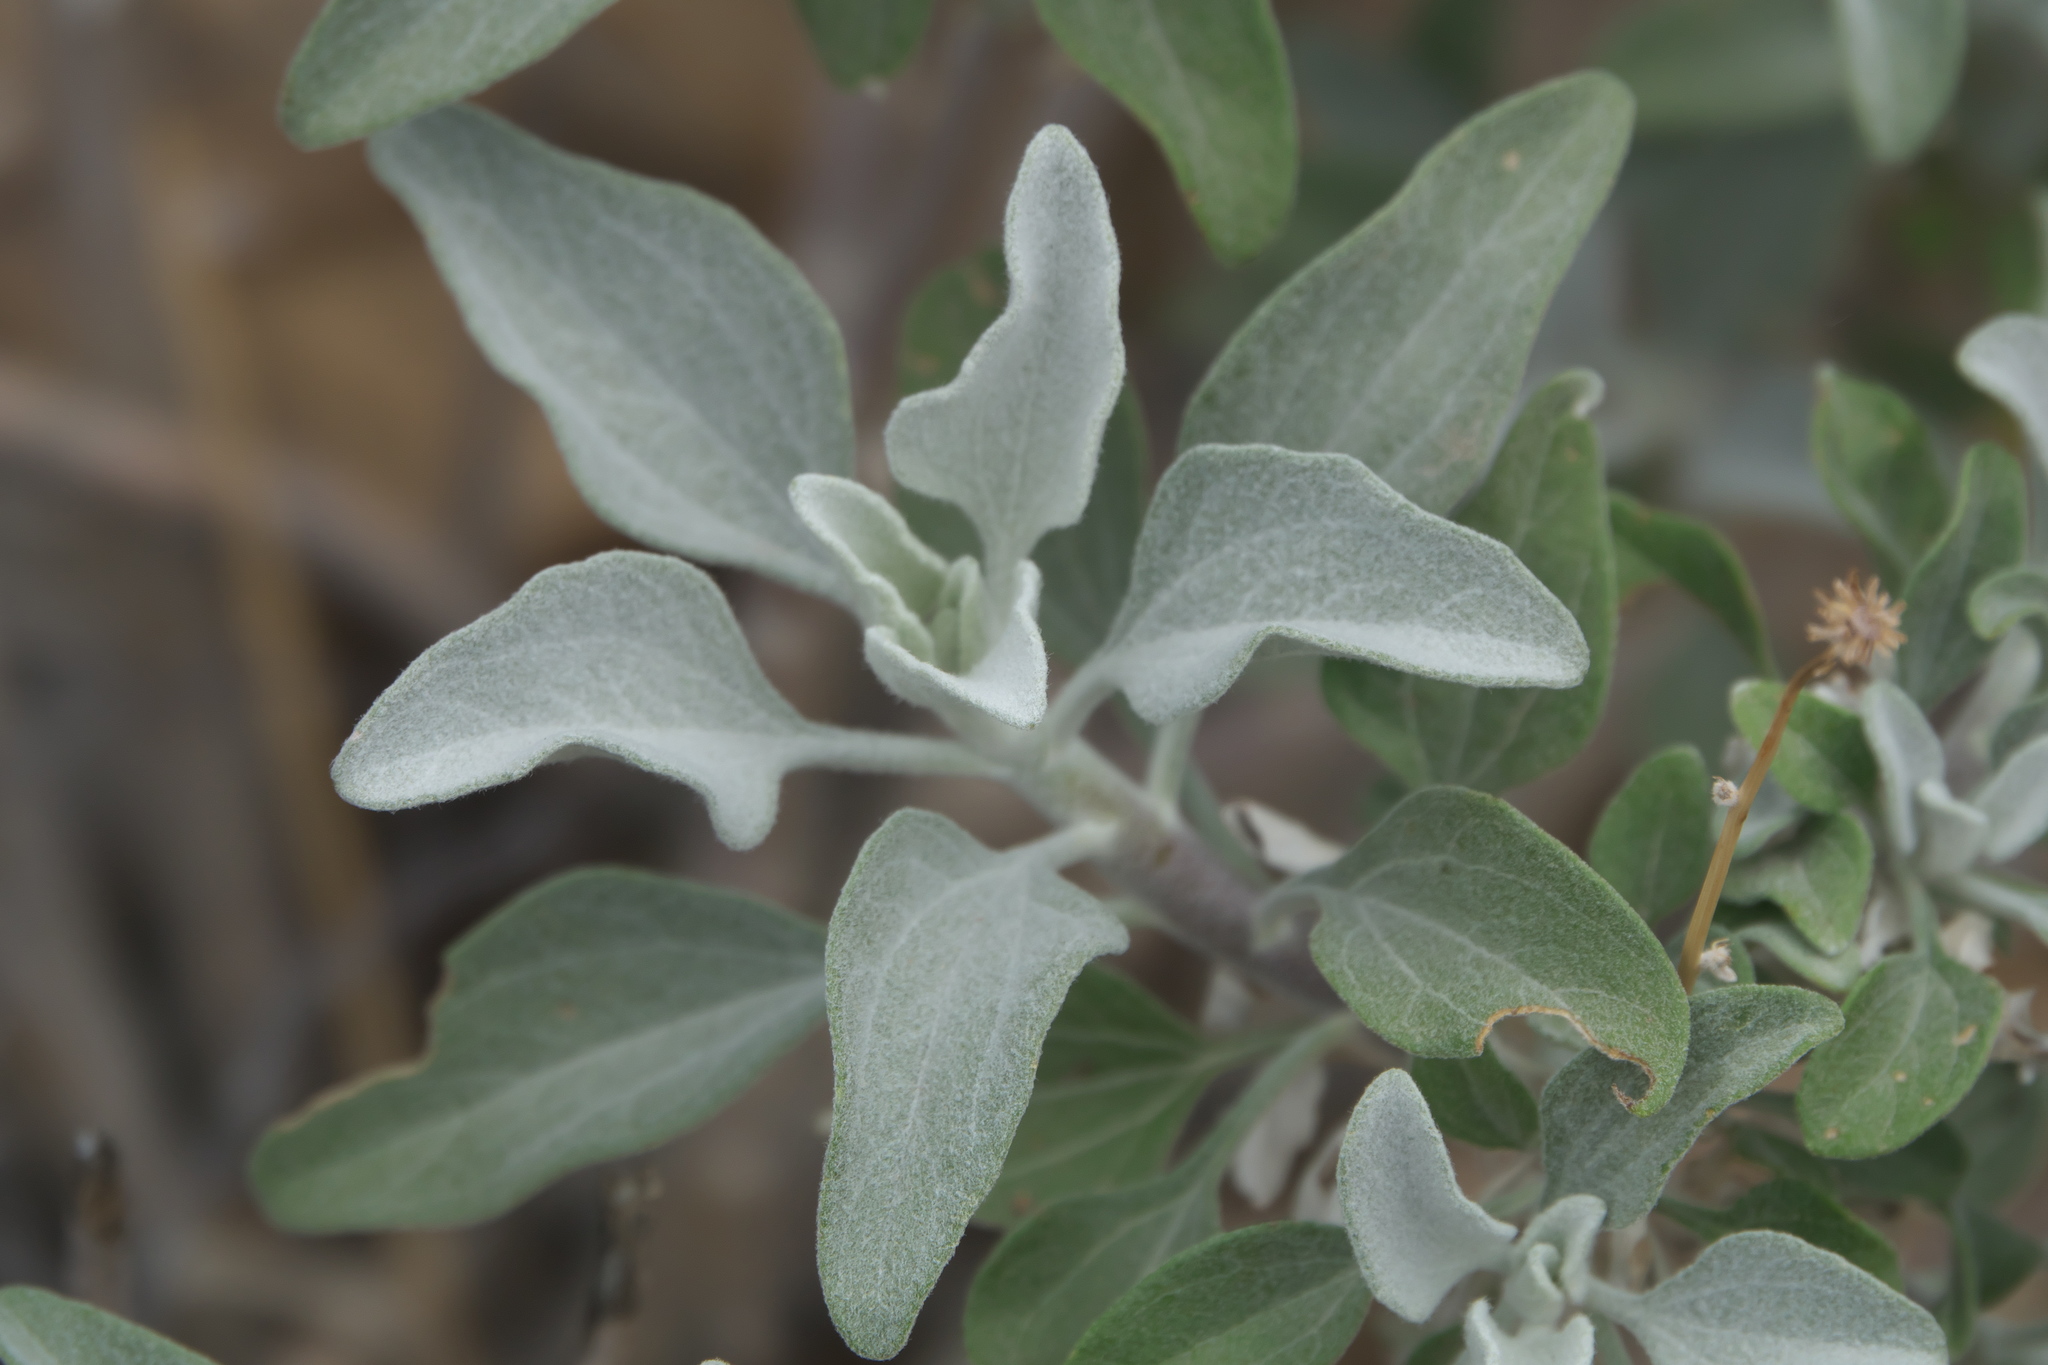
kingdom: Plantae
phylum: Tracheophyta
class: Magnoliopsida
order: Asterales
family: Asteraceae
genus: Encelia
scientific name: Encelia farinosa
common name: Brittlebush
